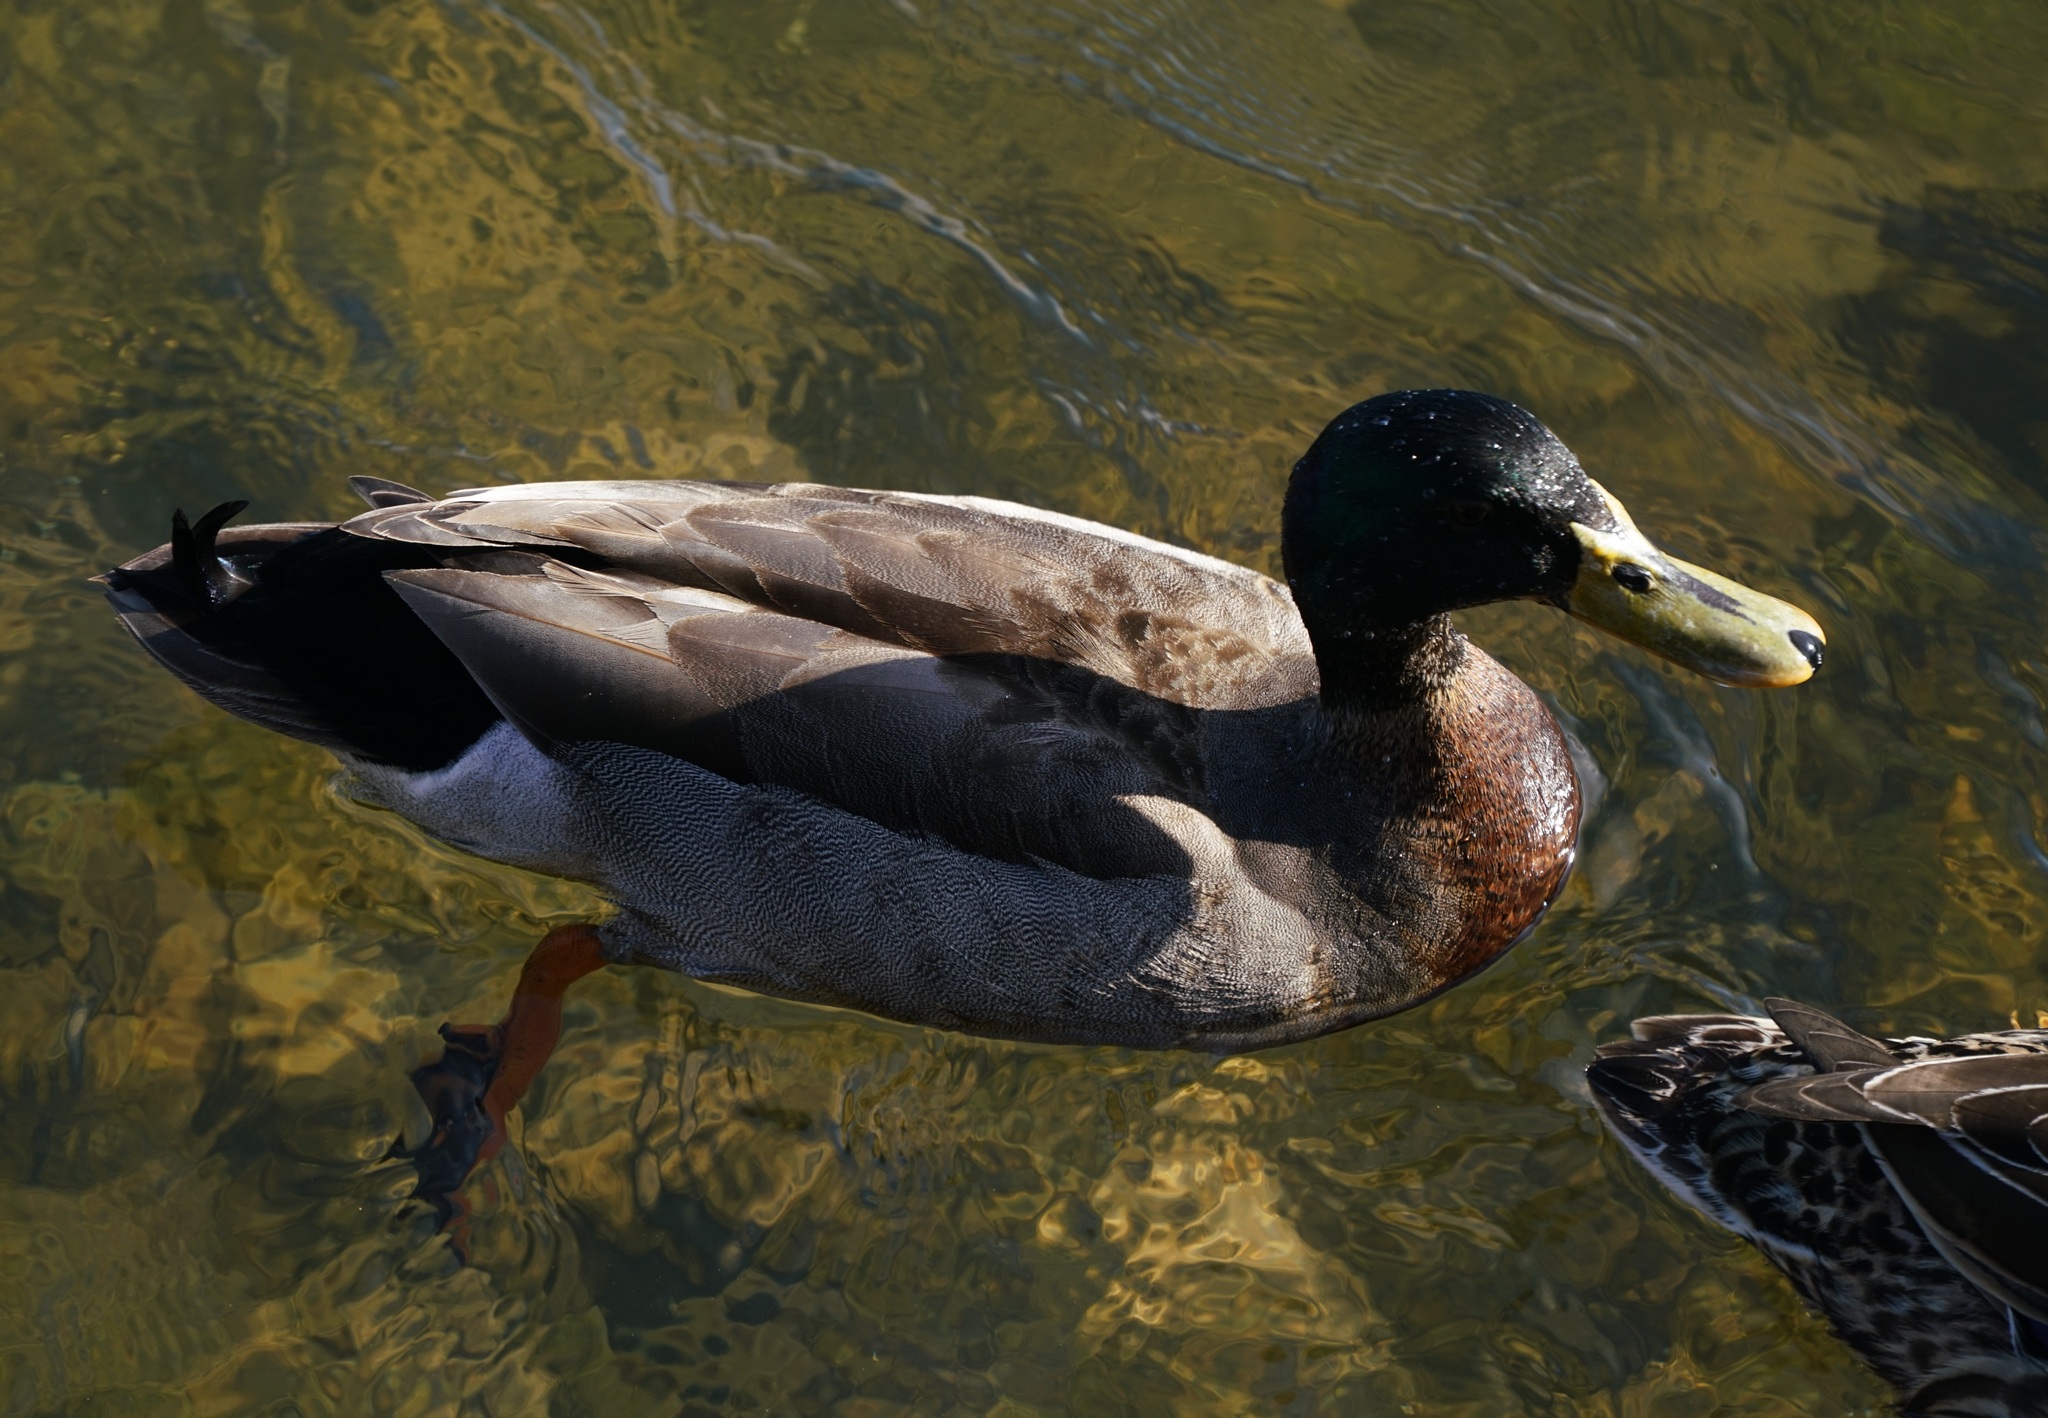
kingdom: Animalia
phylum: Chordata
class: Aves
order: Anseriformes
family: Anatidae
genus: Anas
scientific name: Anas platyrhynchos
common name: Mallard
